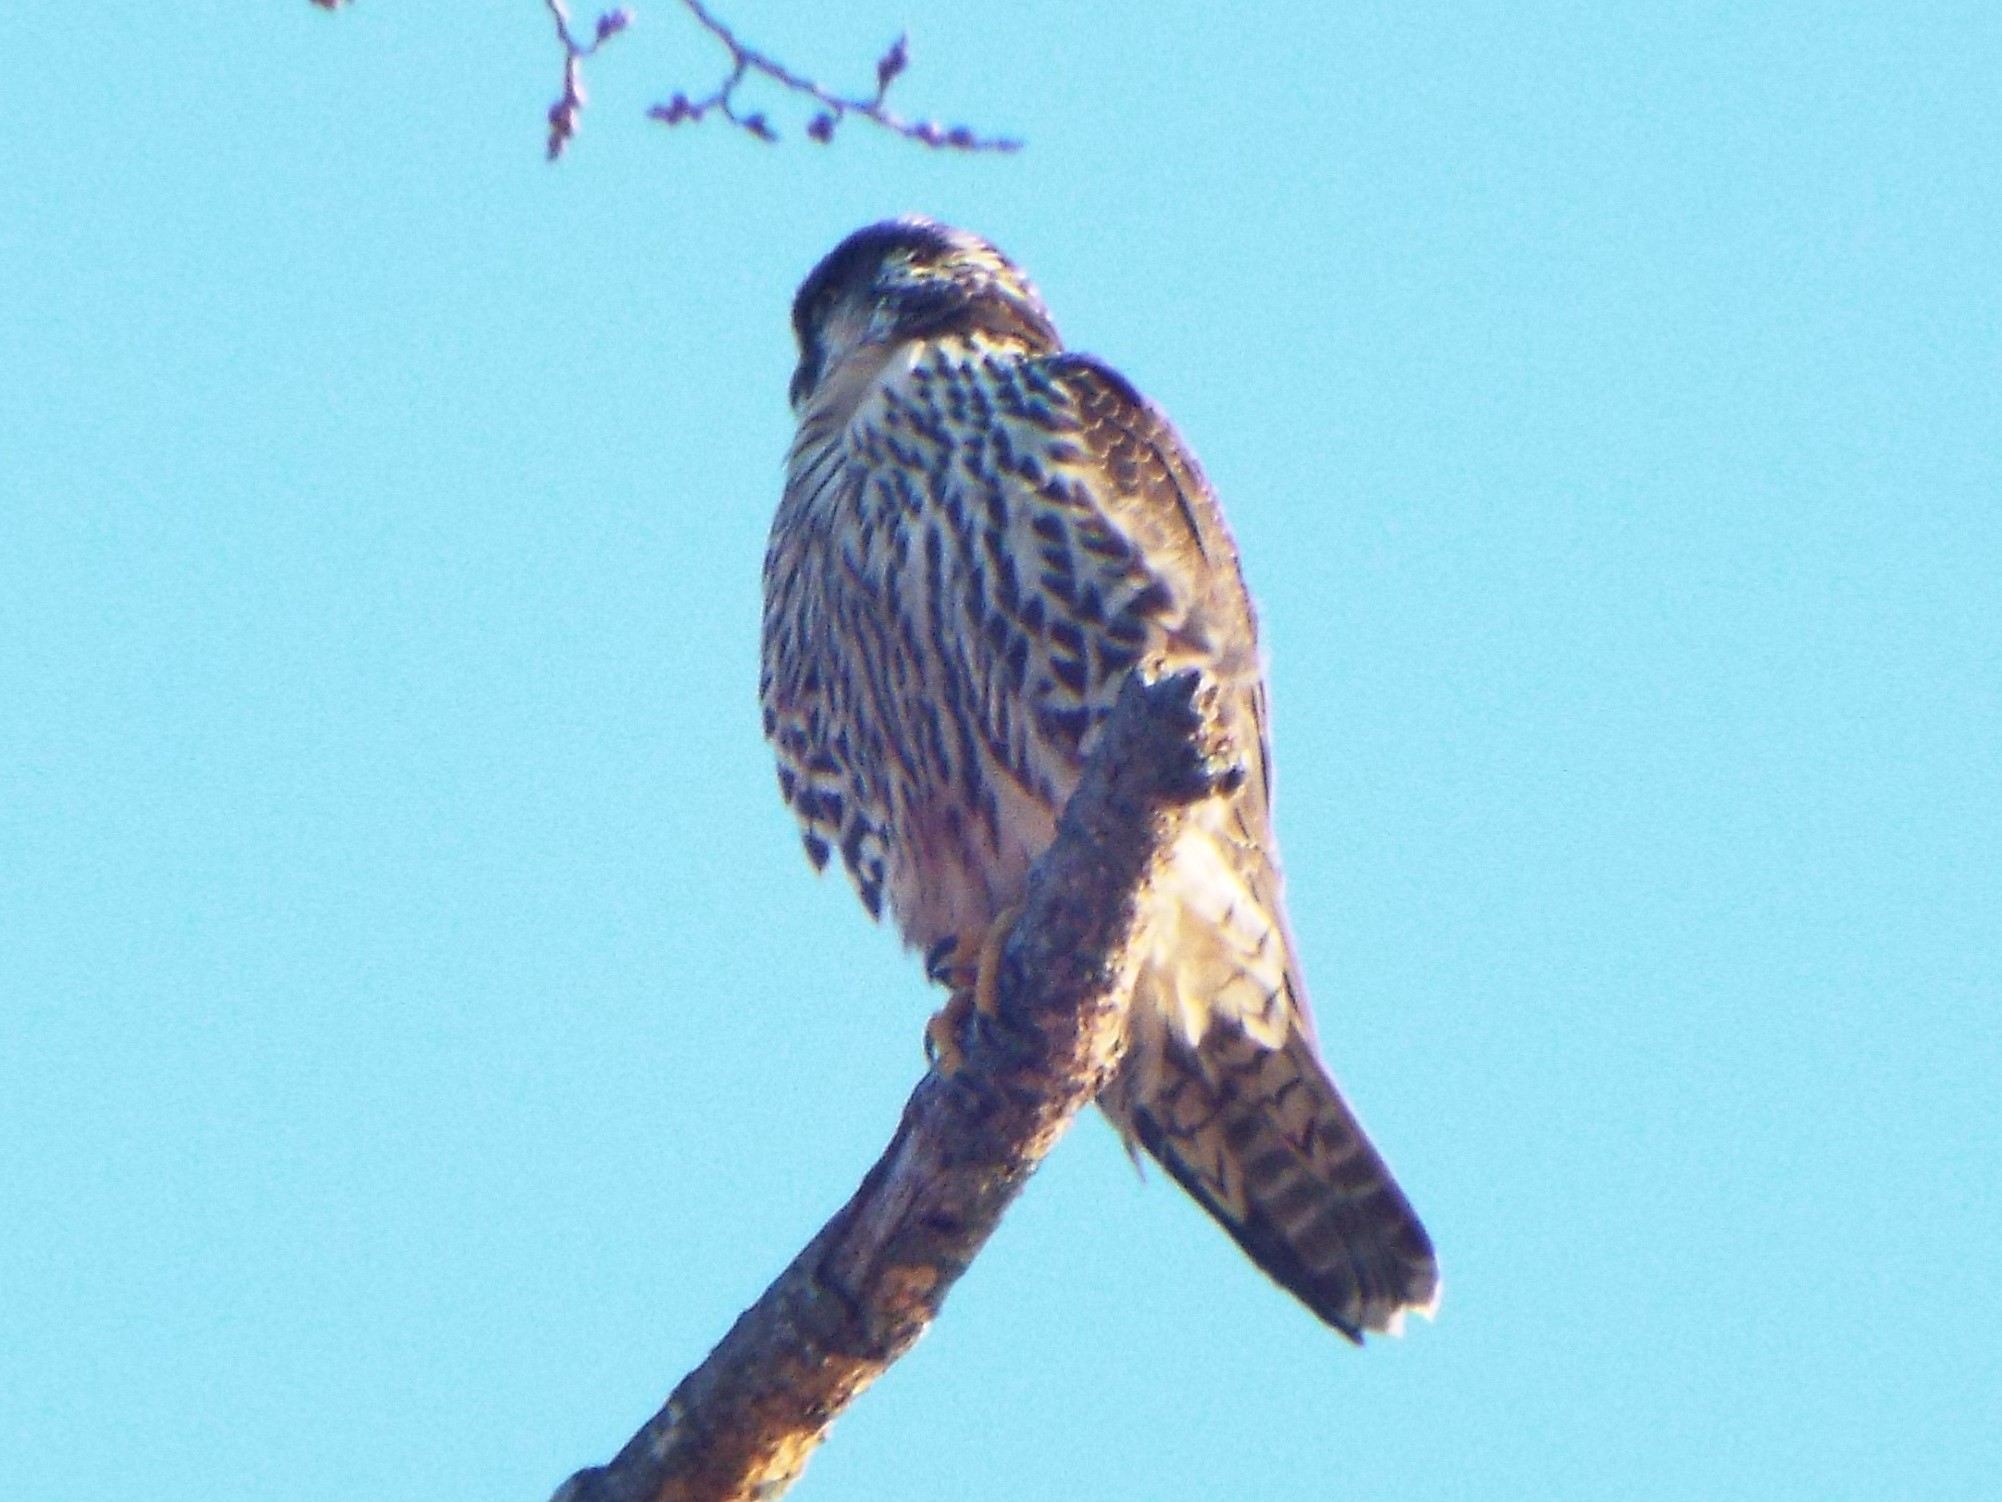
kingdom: Animalia
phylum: Chordata
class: Aves
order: Falconiformes
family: Falconidae
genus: Falco
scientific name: Falco peregrinus
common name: Peregrine falcon
